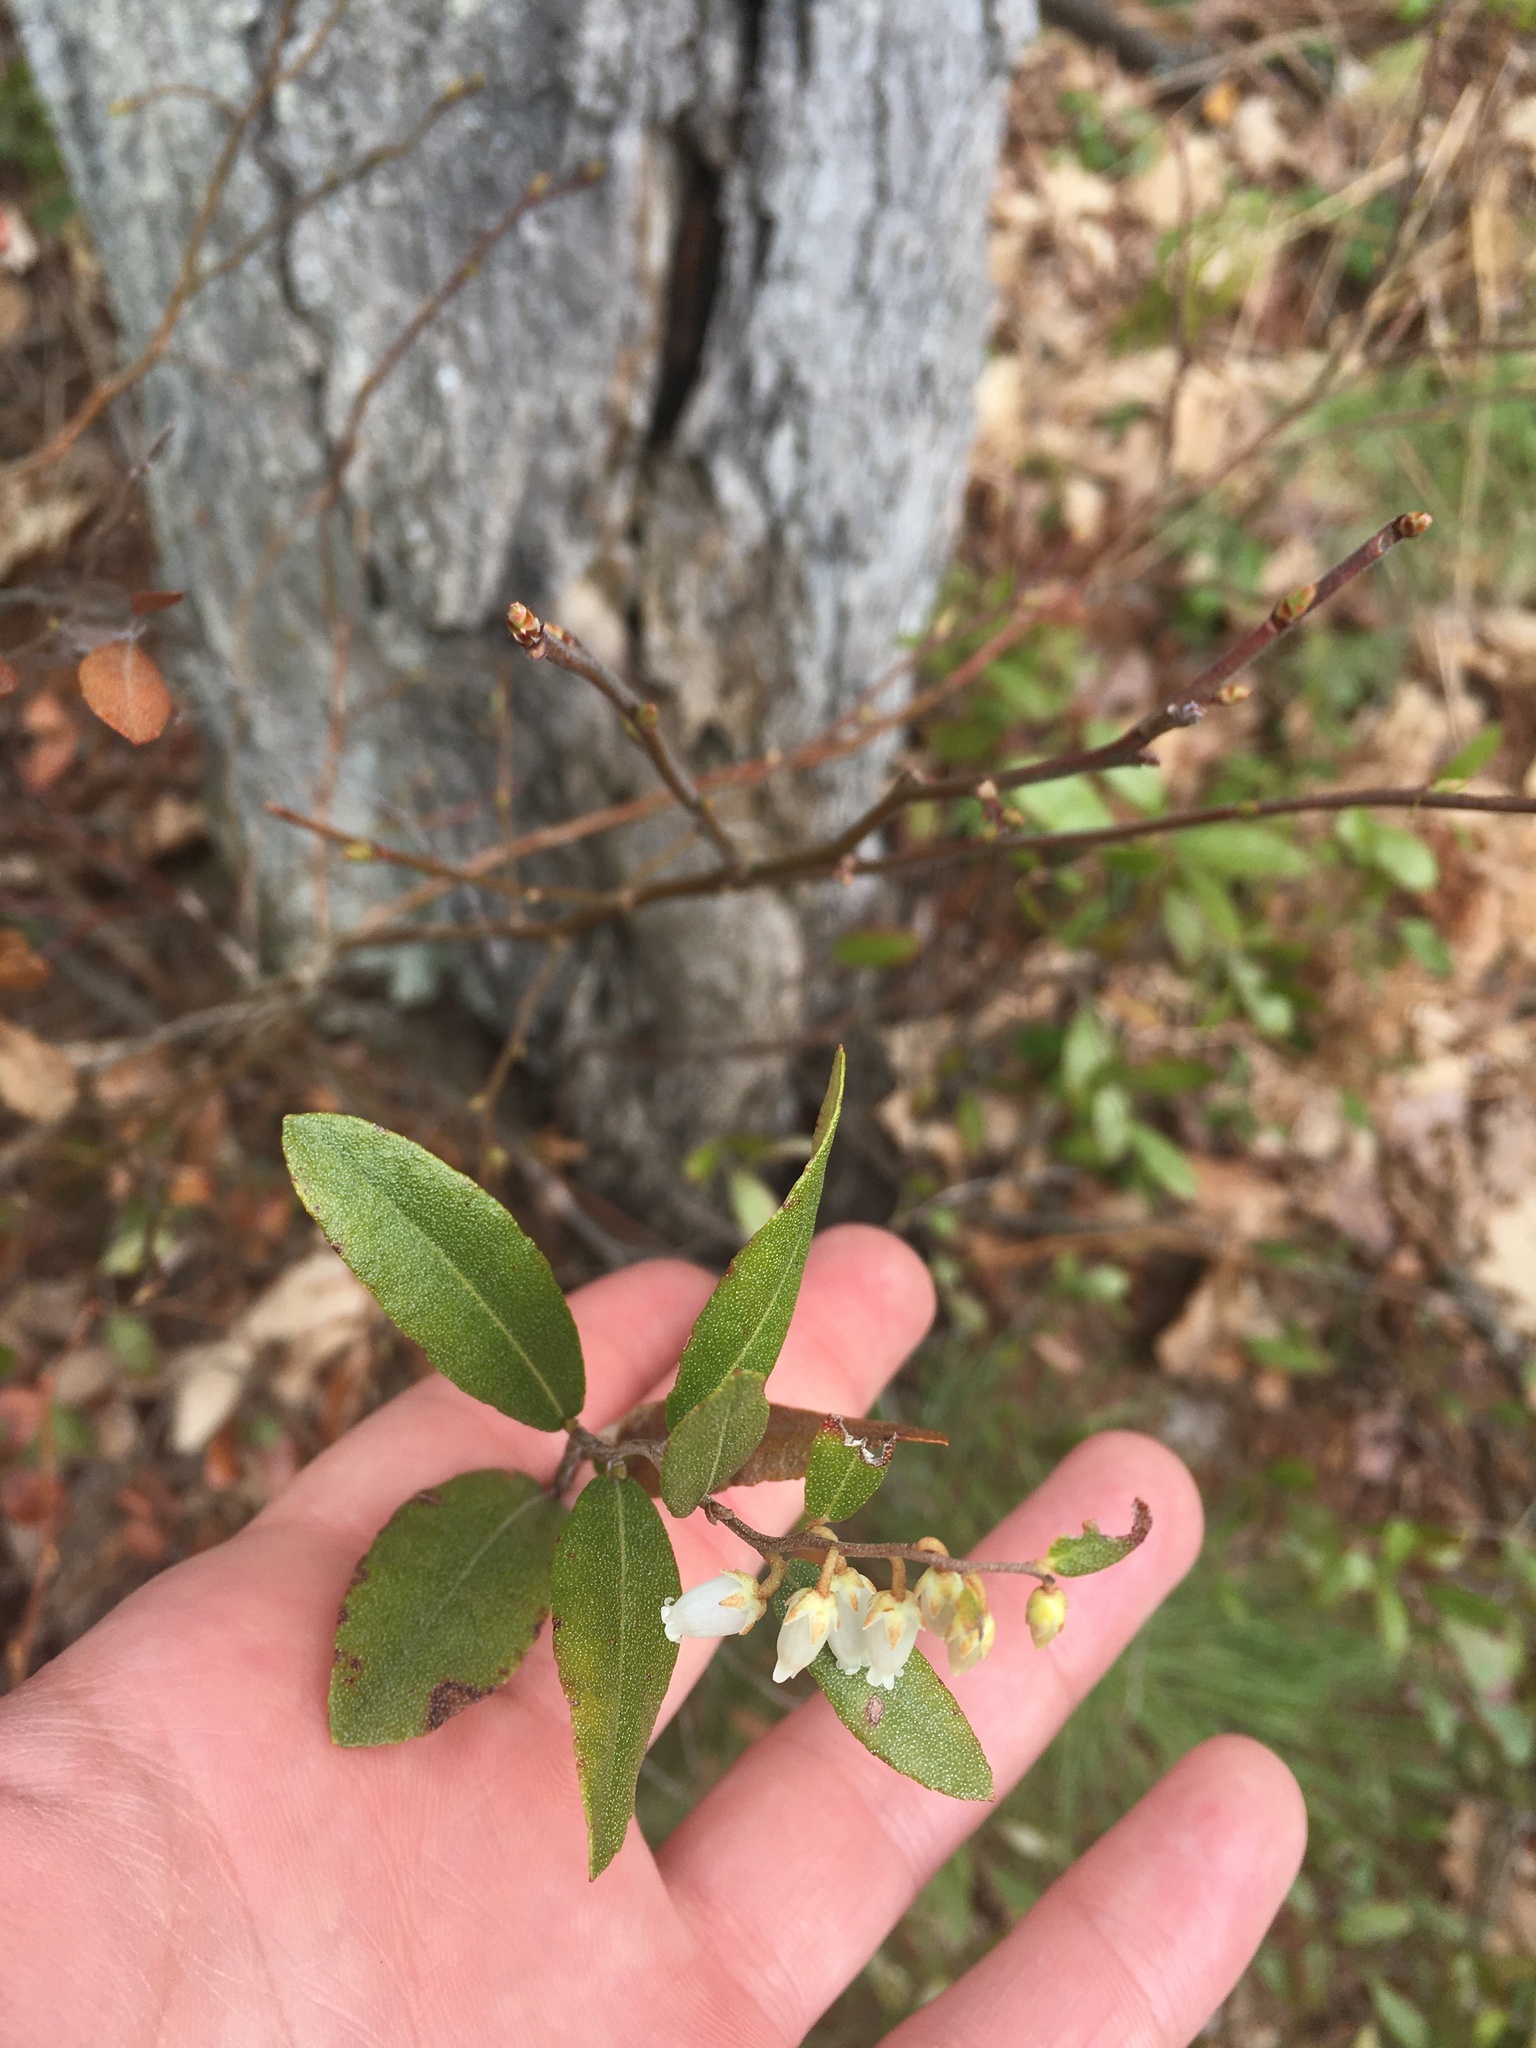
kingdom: Plantae
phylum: Tracheophyta
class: Magnoliopsida
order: Ericales
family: Ericaceae
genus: Chamaedaphne
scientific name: Chamaedaphne calyculata
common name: Leatherleaf
